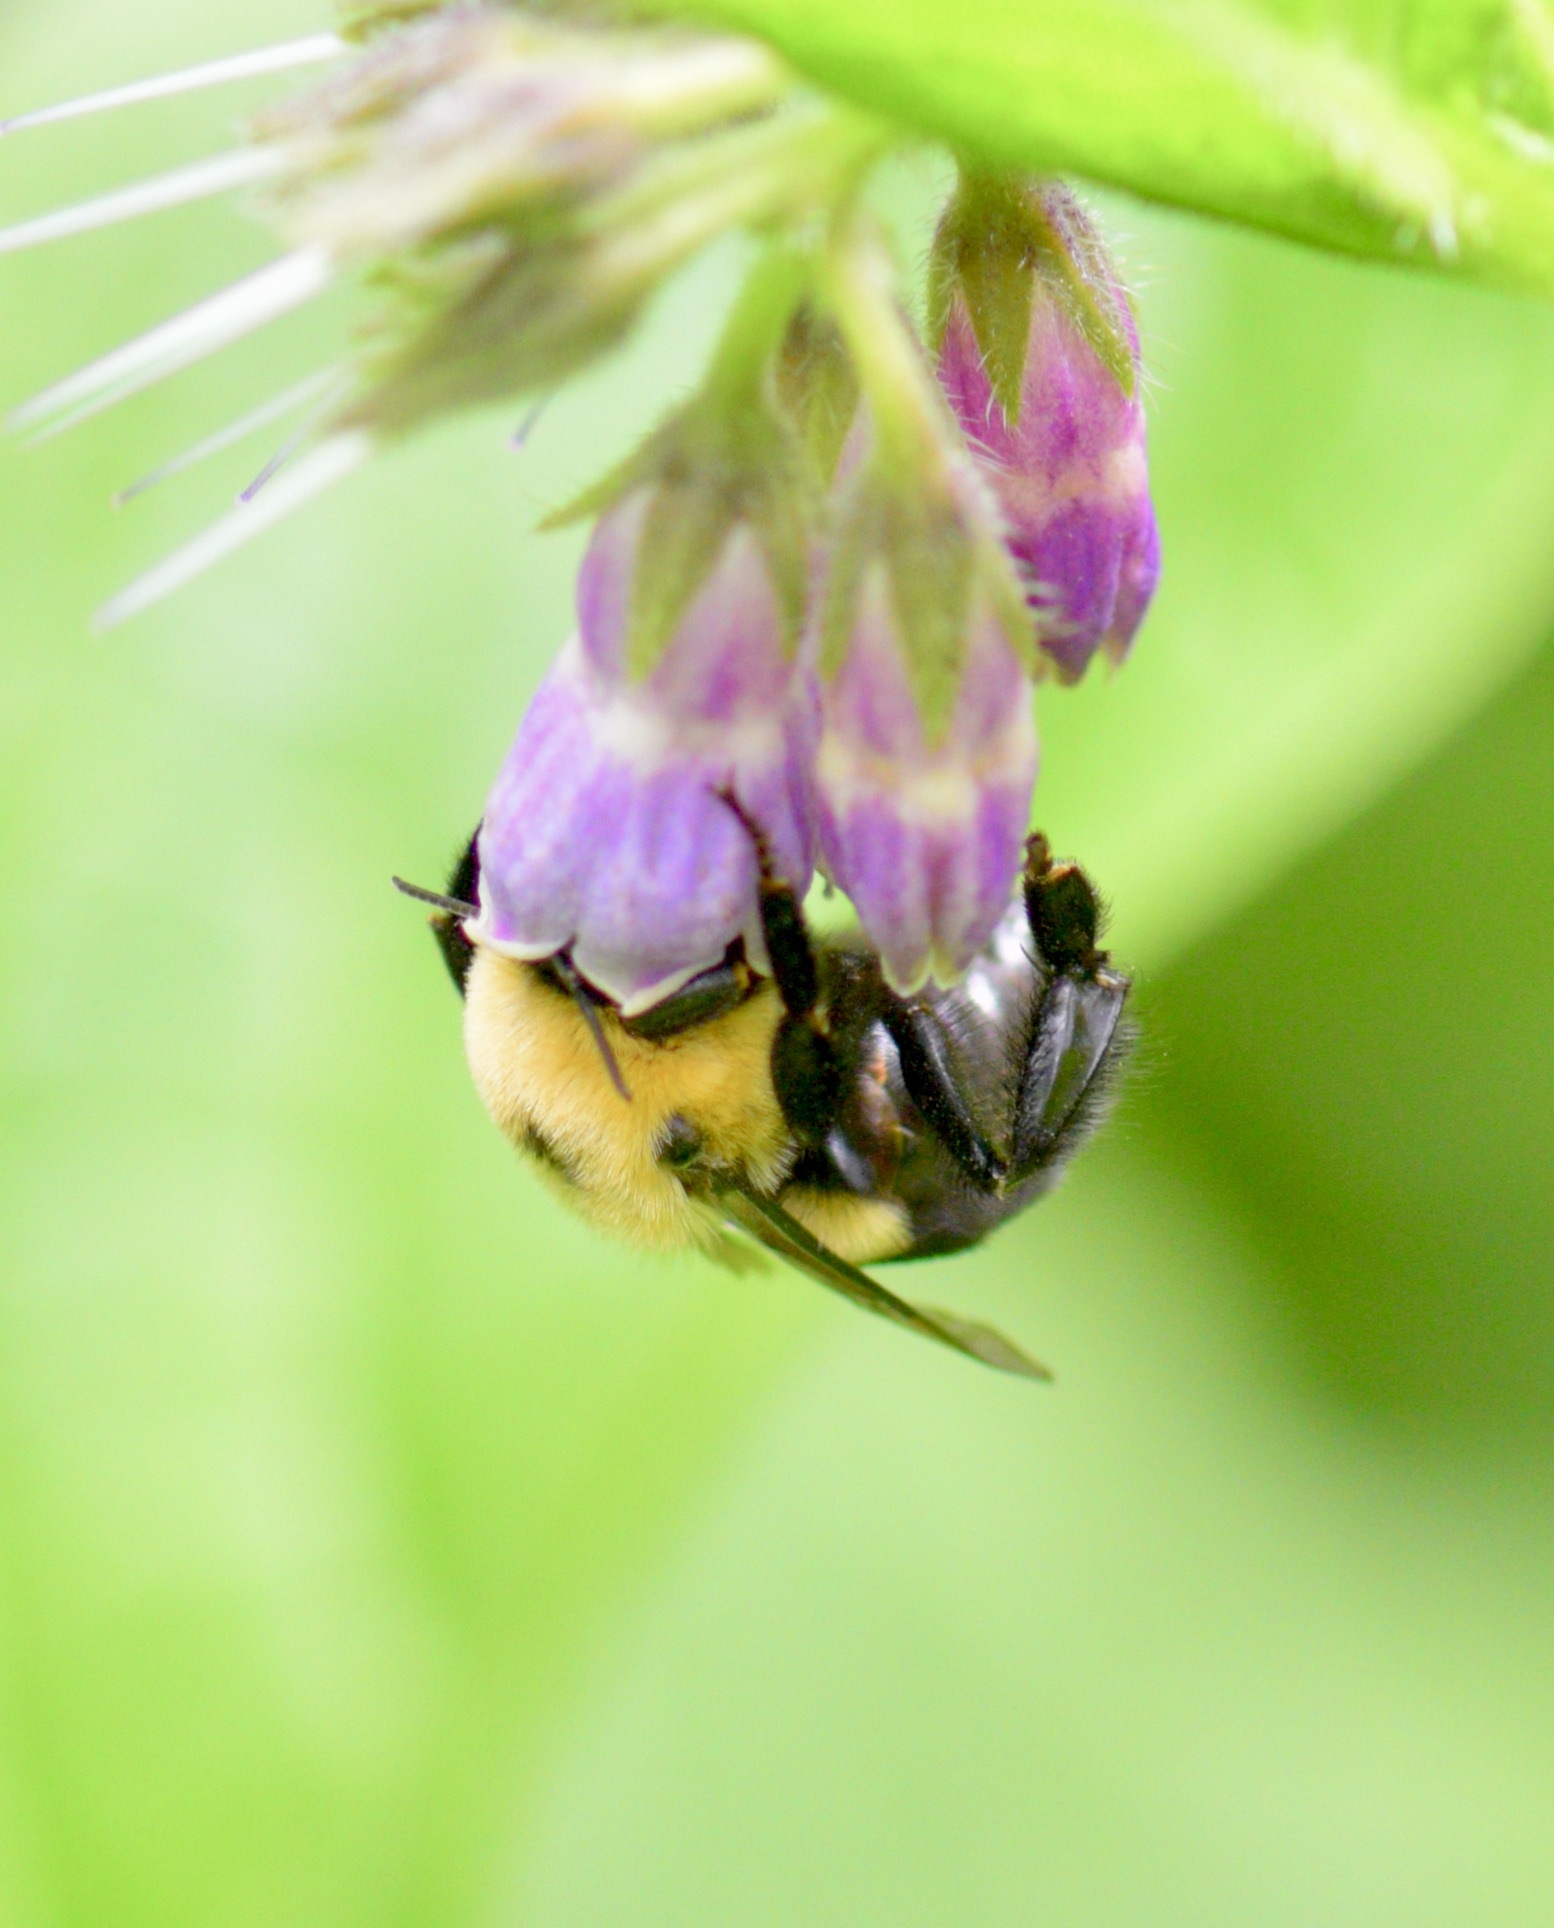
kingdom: Animalia
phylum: Arthropoda
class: Insecta
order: Hymenoptera
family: Apidae
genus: Bombus
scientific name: Bombus griseocollis
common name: Brown-belted bumble bee
